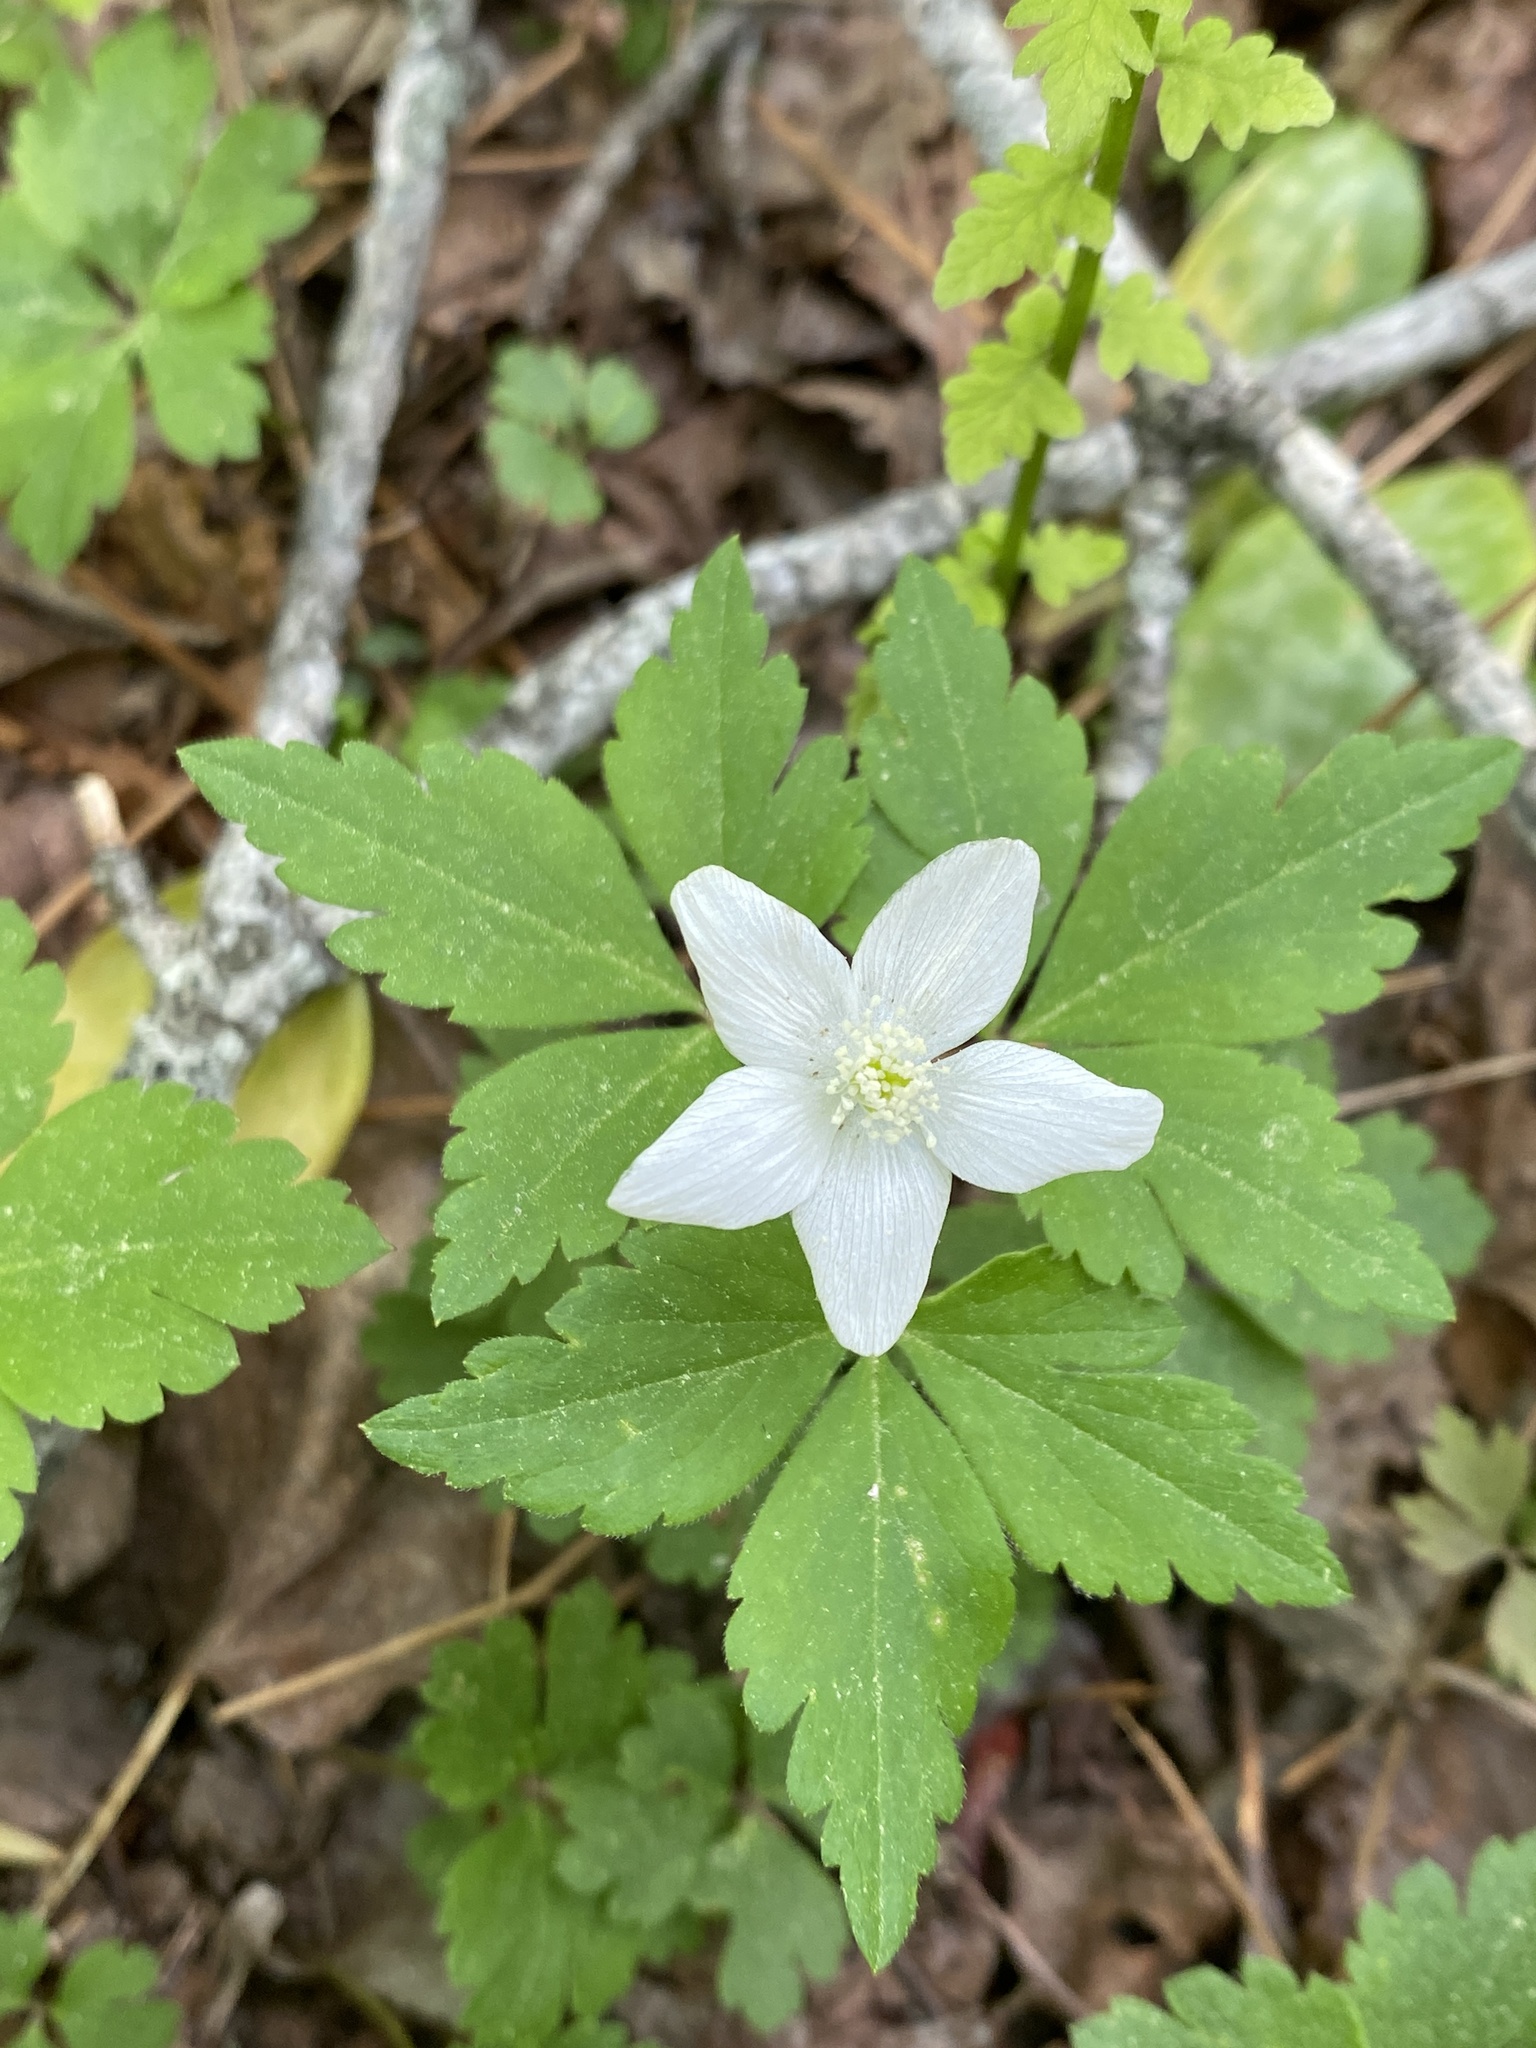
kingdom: Plantae
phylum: Tracheophyta
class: Magnoliopsida
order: Ranunculales
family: Ranunculaceae
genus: Anemone
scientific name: Anemone quinquefolia
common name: Wood anemone
